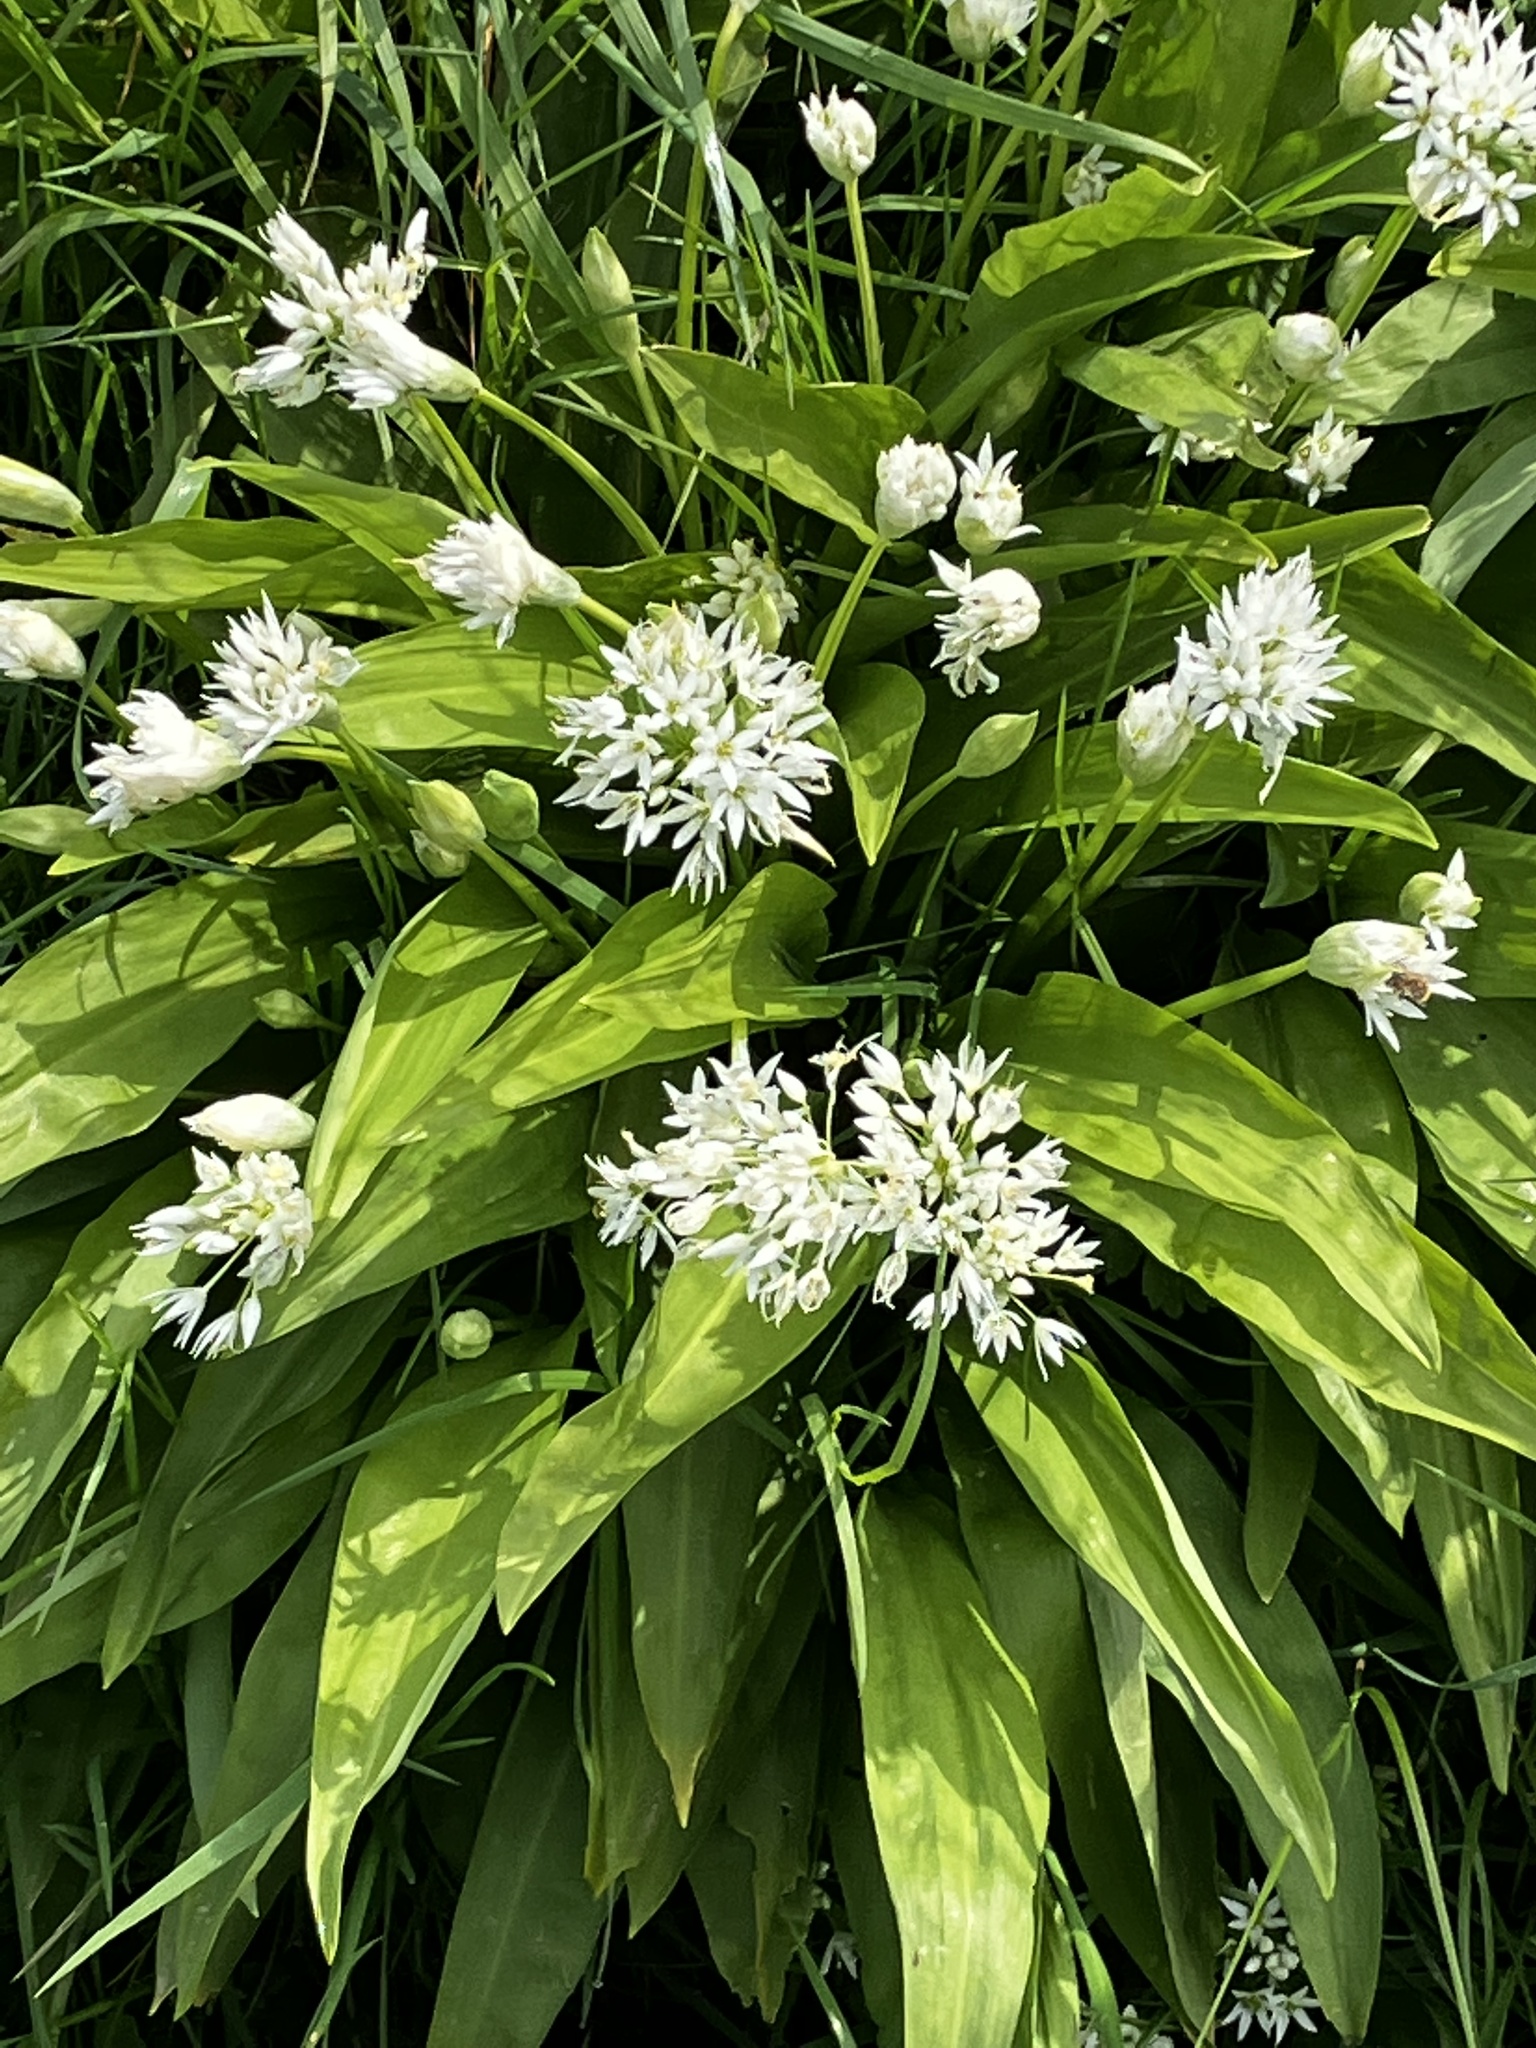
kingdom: Plantae
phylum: Tracheophyta
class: Liliopsida
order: Asparagales
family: Amaryllidaceae
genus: Allium
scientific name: Allium ursinum
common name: Ramsons
